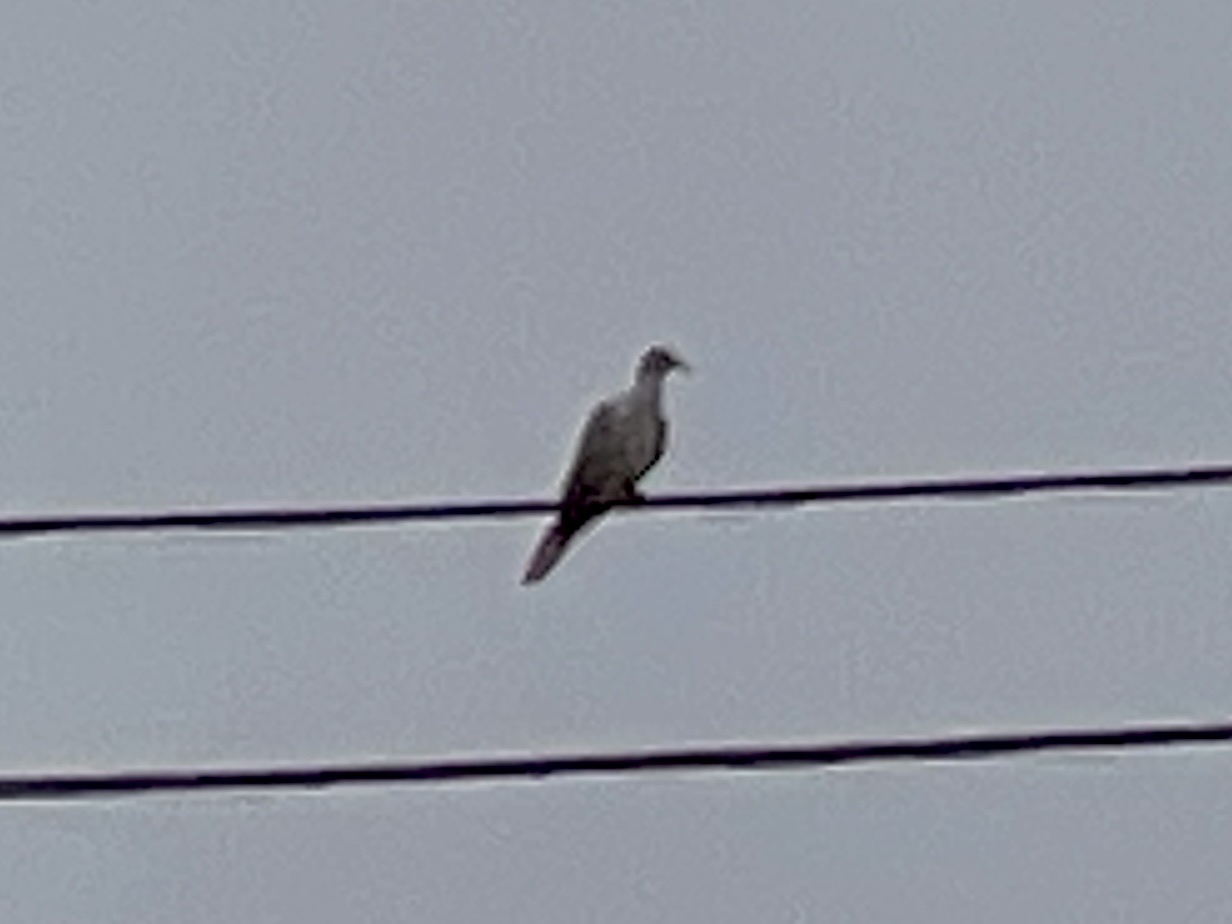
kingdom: Animalia
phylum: Chordata
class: Aves
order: Columbiformes
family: Columbidae
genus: Zenaida
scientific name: Zenaida macroura
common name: Mourning dove
